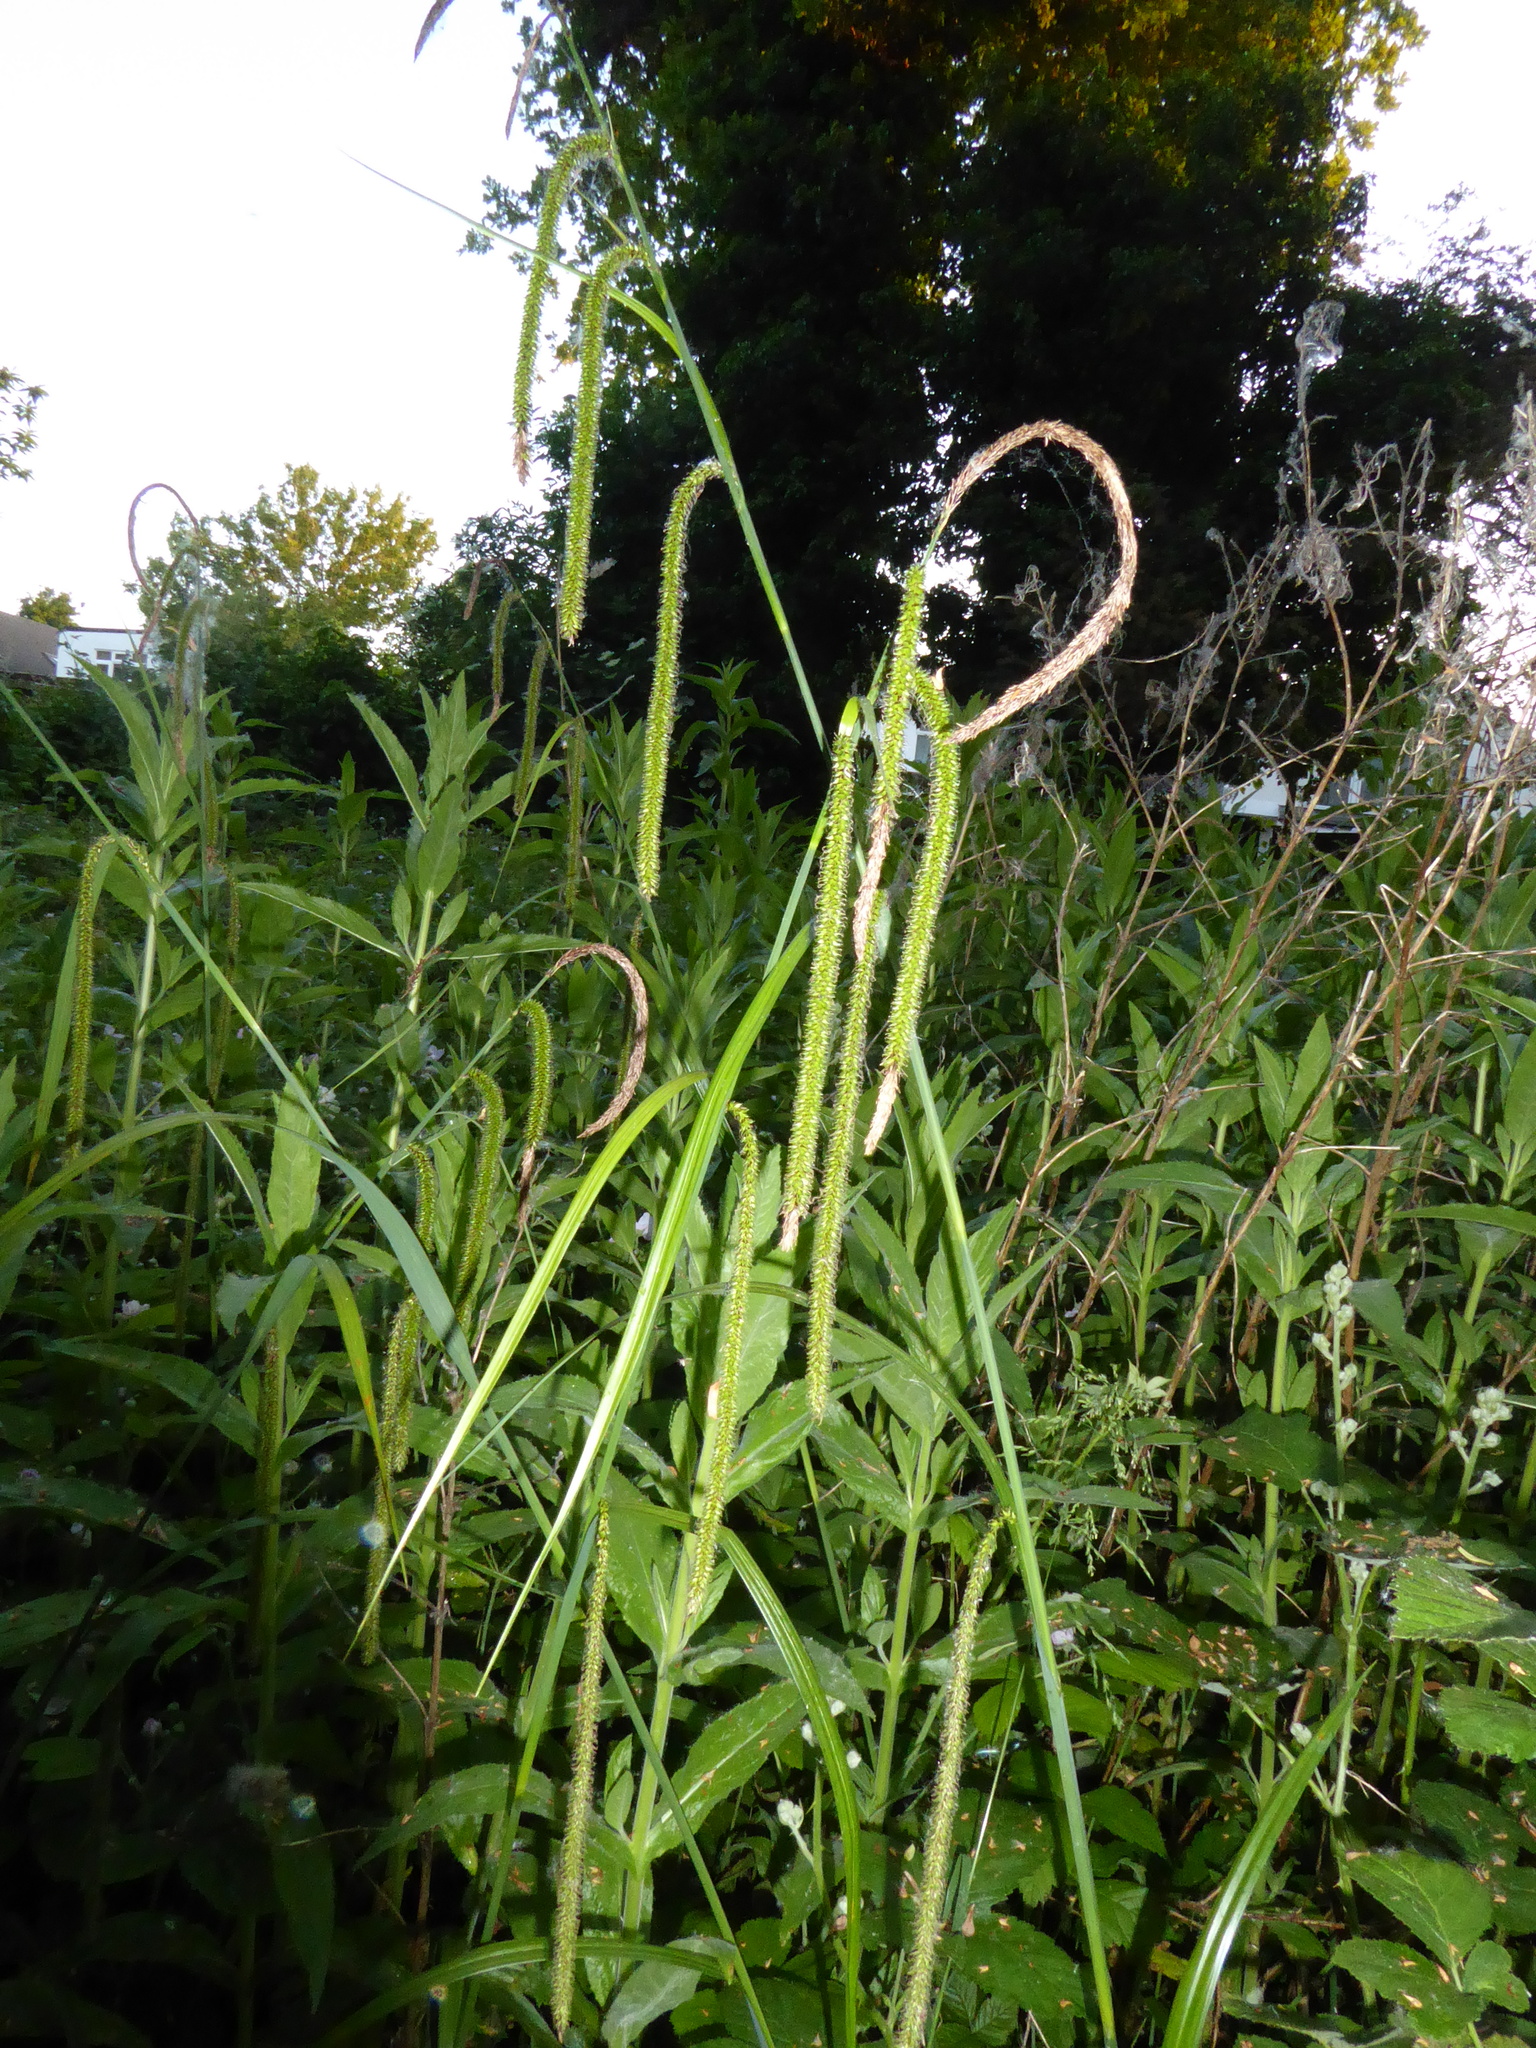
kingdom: Plantae
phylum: Tracheophyta
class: Liliopsida
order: Poales
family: Cyperaceae
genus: Carex
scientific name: Carex pendula
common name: Pendulous sedge
